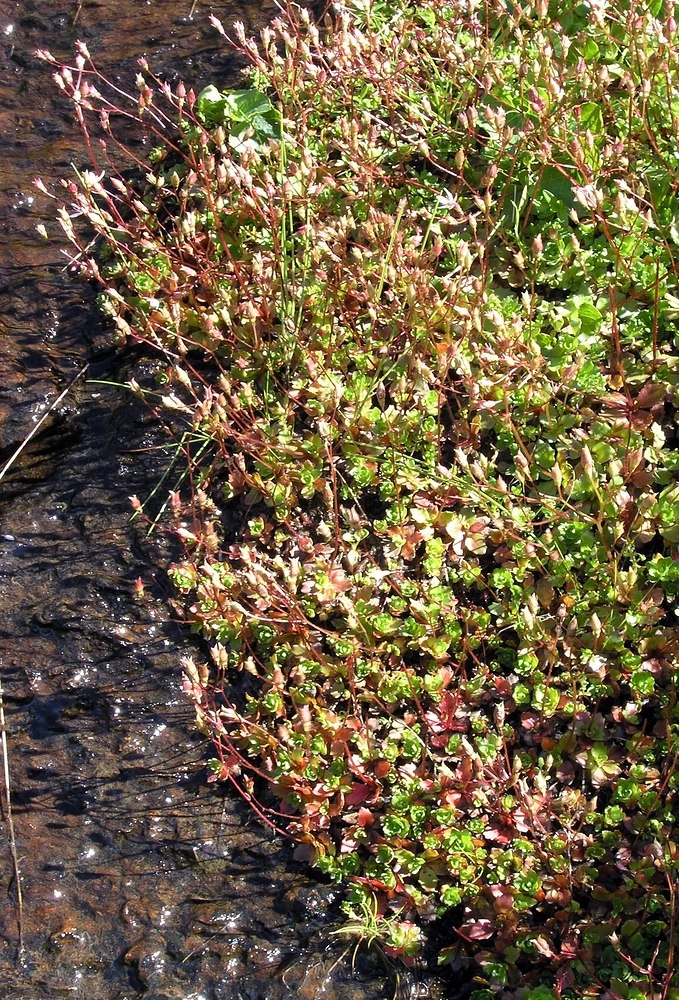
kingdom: Plantae
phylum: Tracheophyta
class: Magnoliopsida
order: Saxifragales
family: Saxifragaceae
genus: Micranthes
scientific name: Micranthes stellaris
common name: Starry saxifrage
